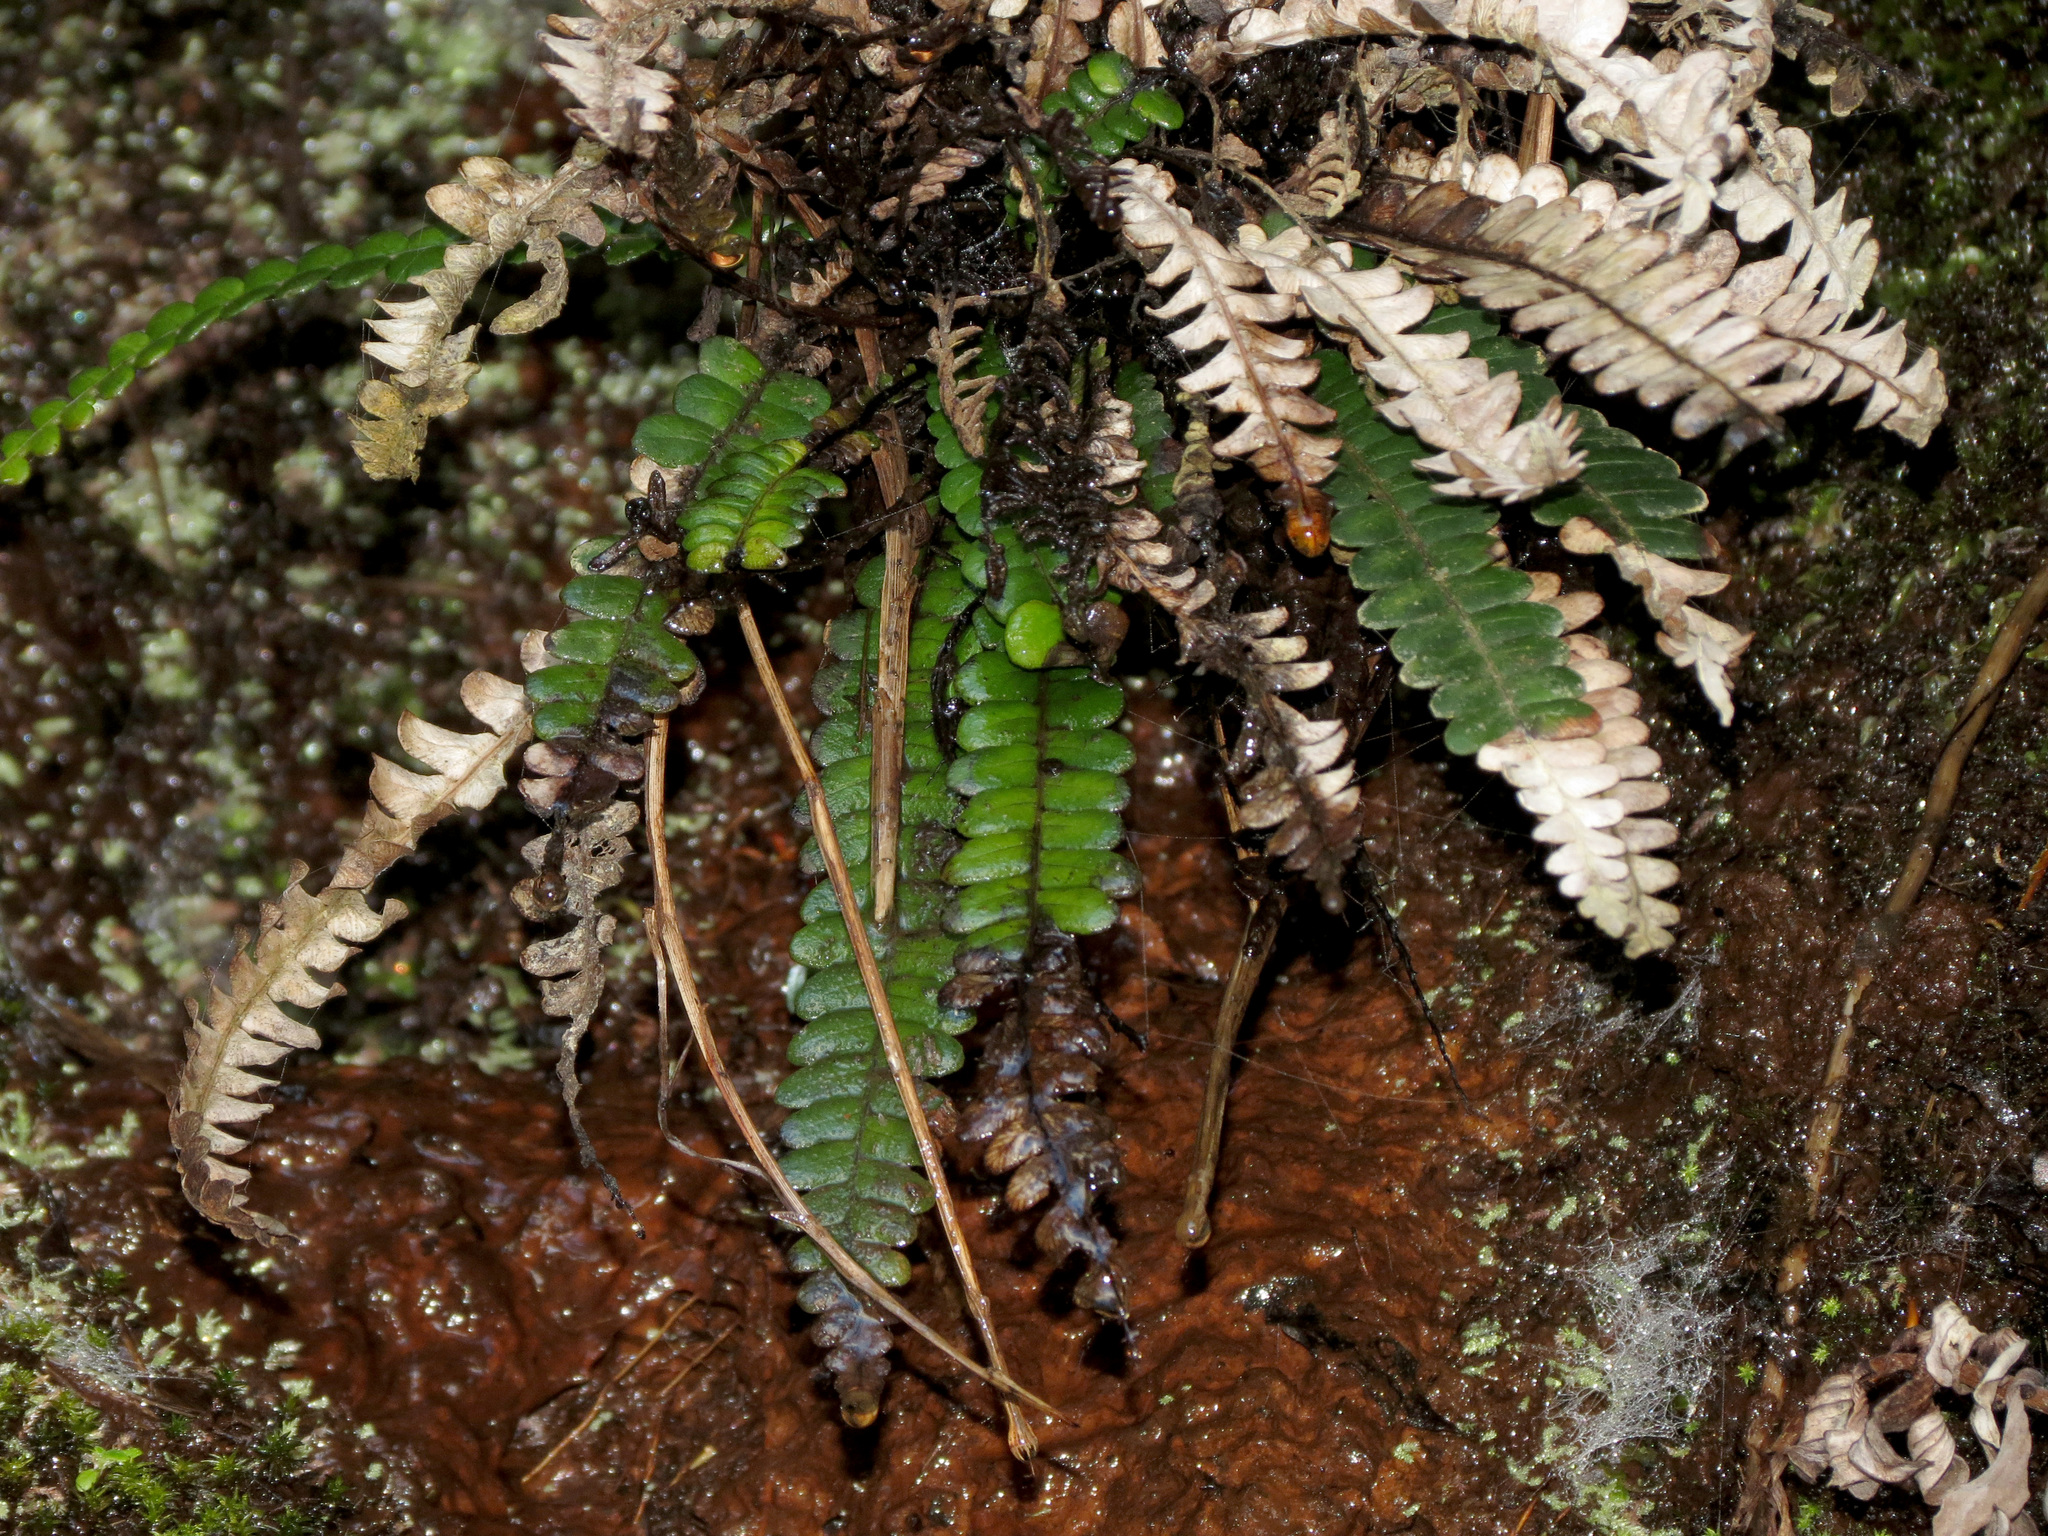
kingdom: Plantae
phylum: Tracheophyta
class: Polypodiopsida
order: Polypodiales
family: Blechnaceae
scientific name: Blechnaceae
